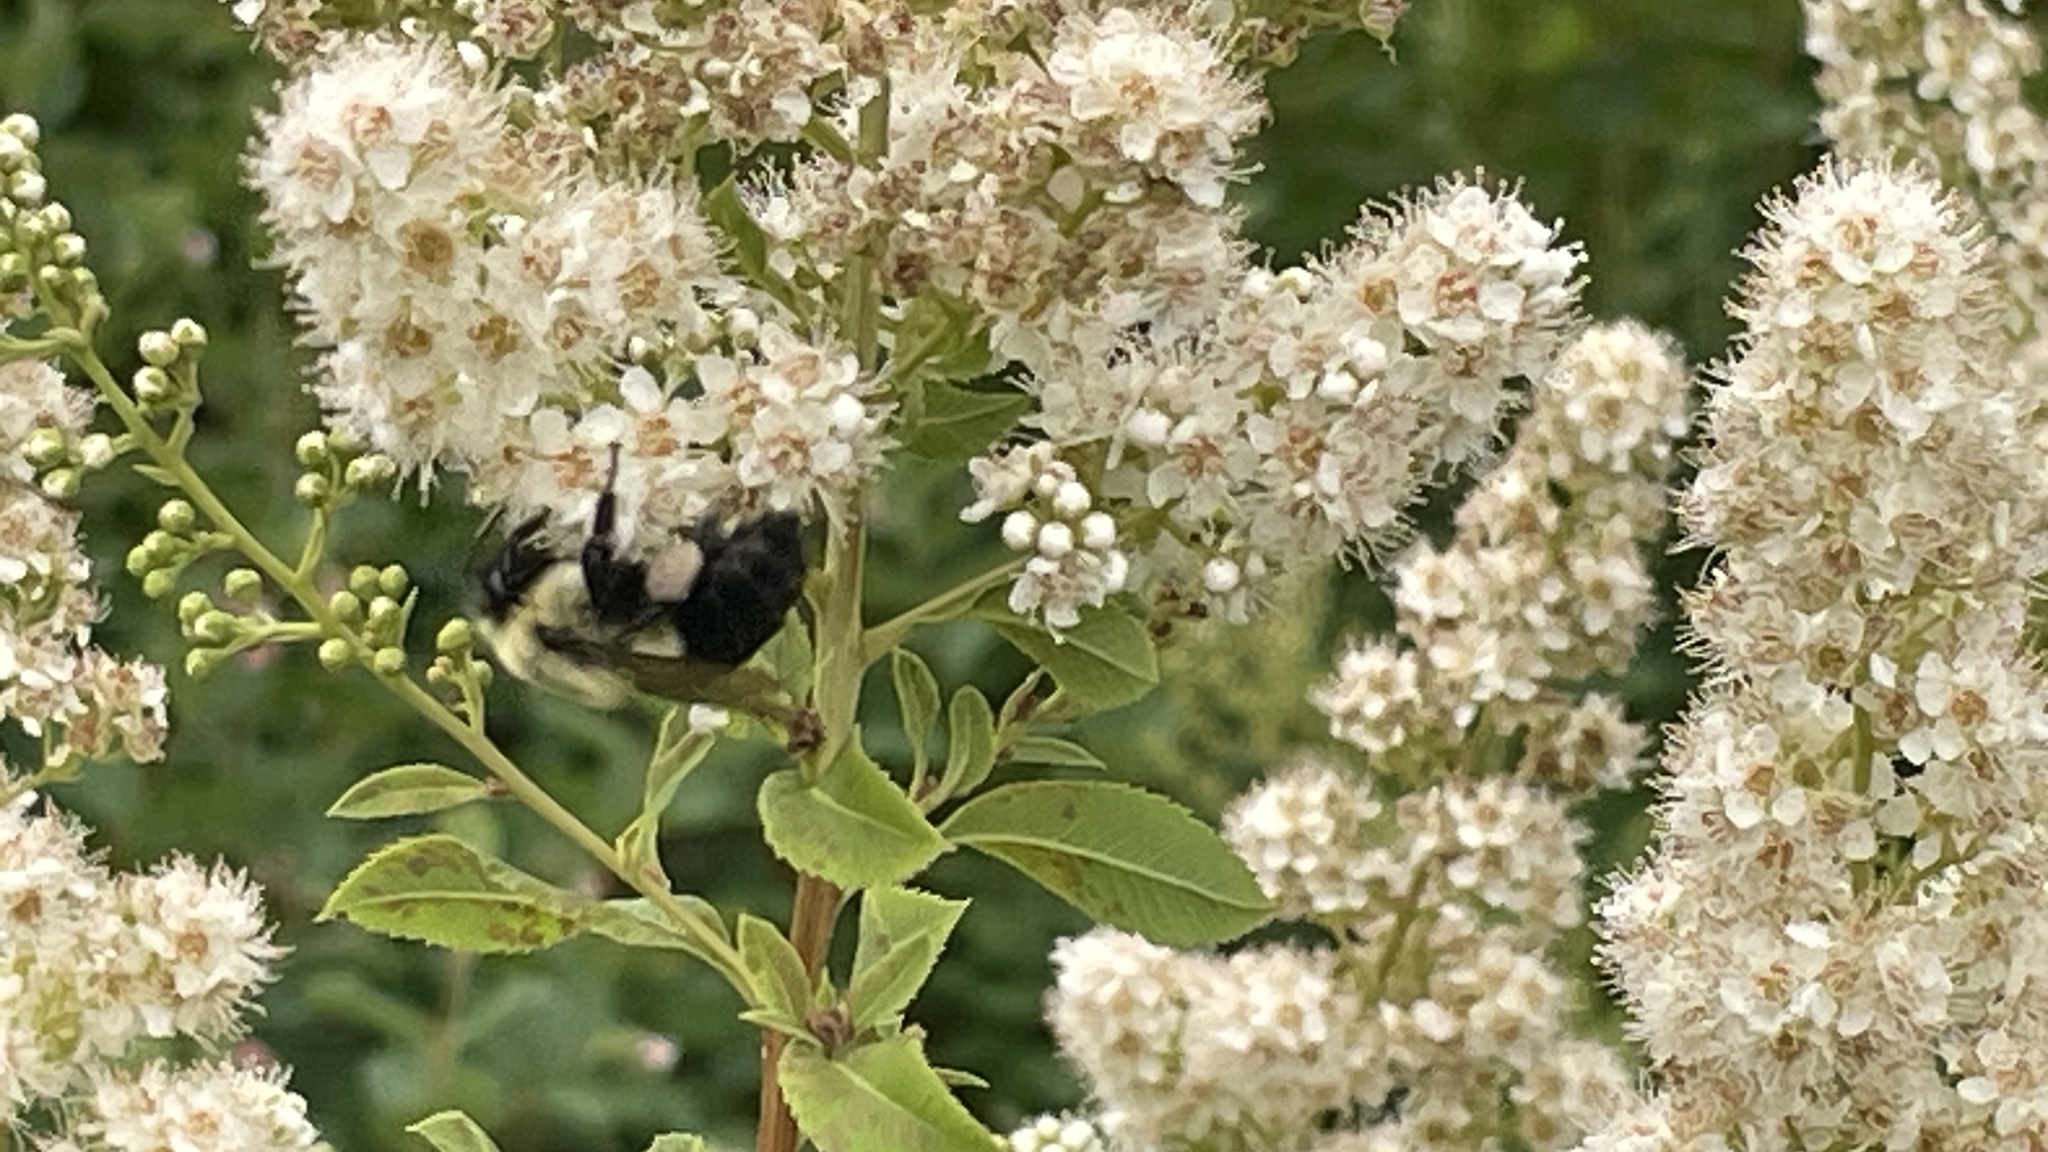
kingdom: Plantae
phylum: Tracheophyta
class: Magnoliopsida
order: Rosales
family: Rosaceae
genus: Spiraea
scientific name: Spiraea alba
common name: Pale bridewort
